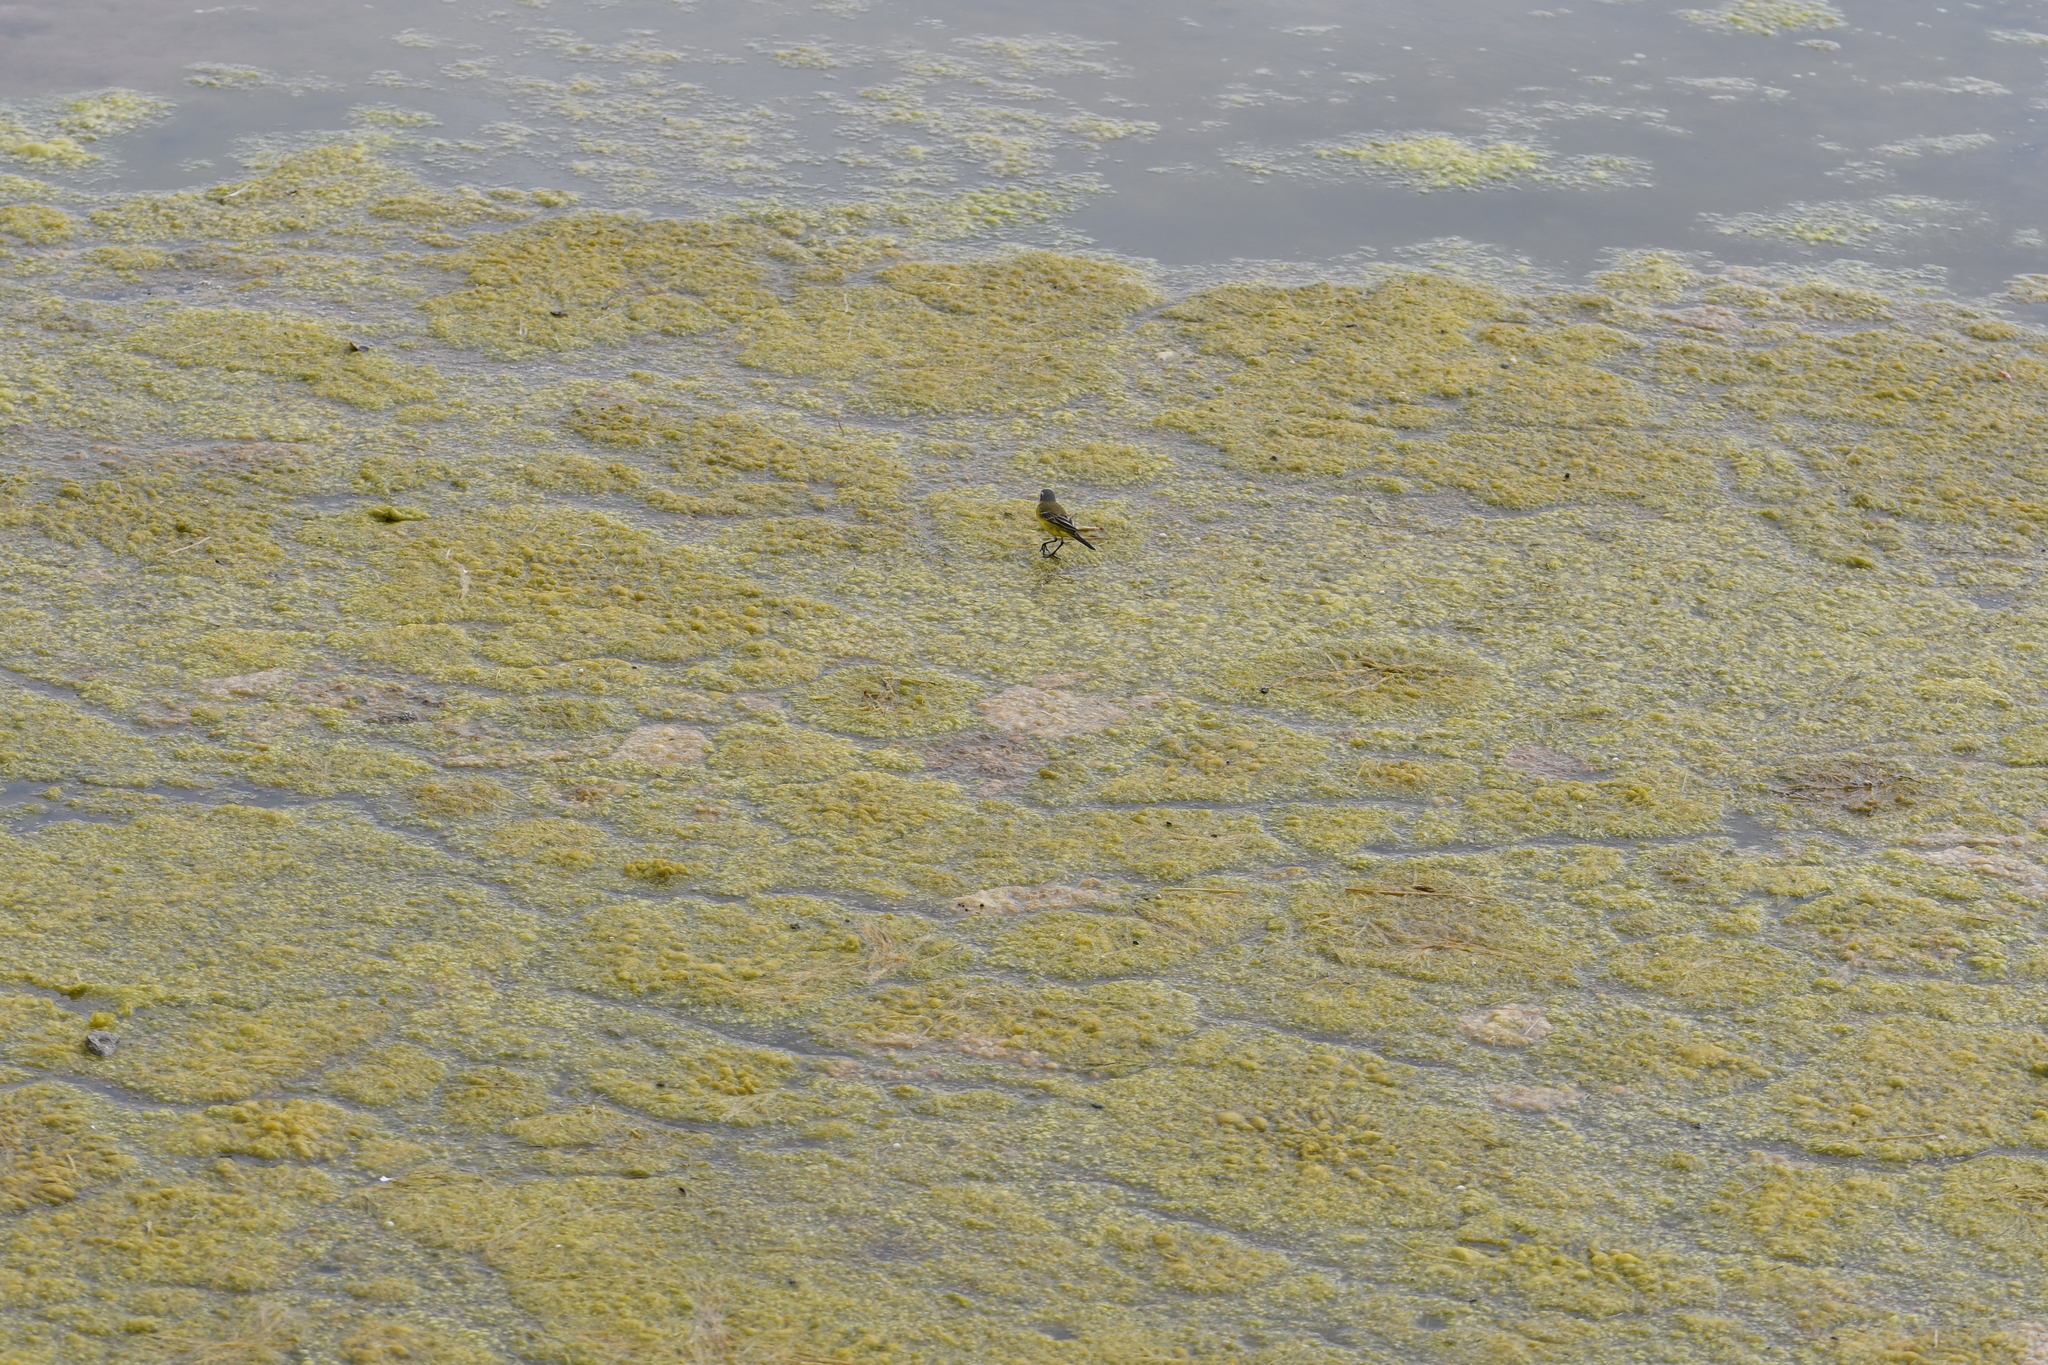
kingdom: Animalia
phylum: Chordata
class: Aves
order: Passeriformes
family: Motacillidae
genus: Motacilla
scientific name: Motacilla flava
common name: Western yellow wagtail
